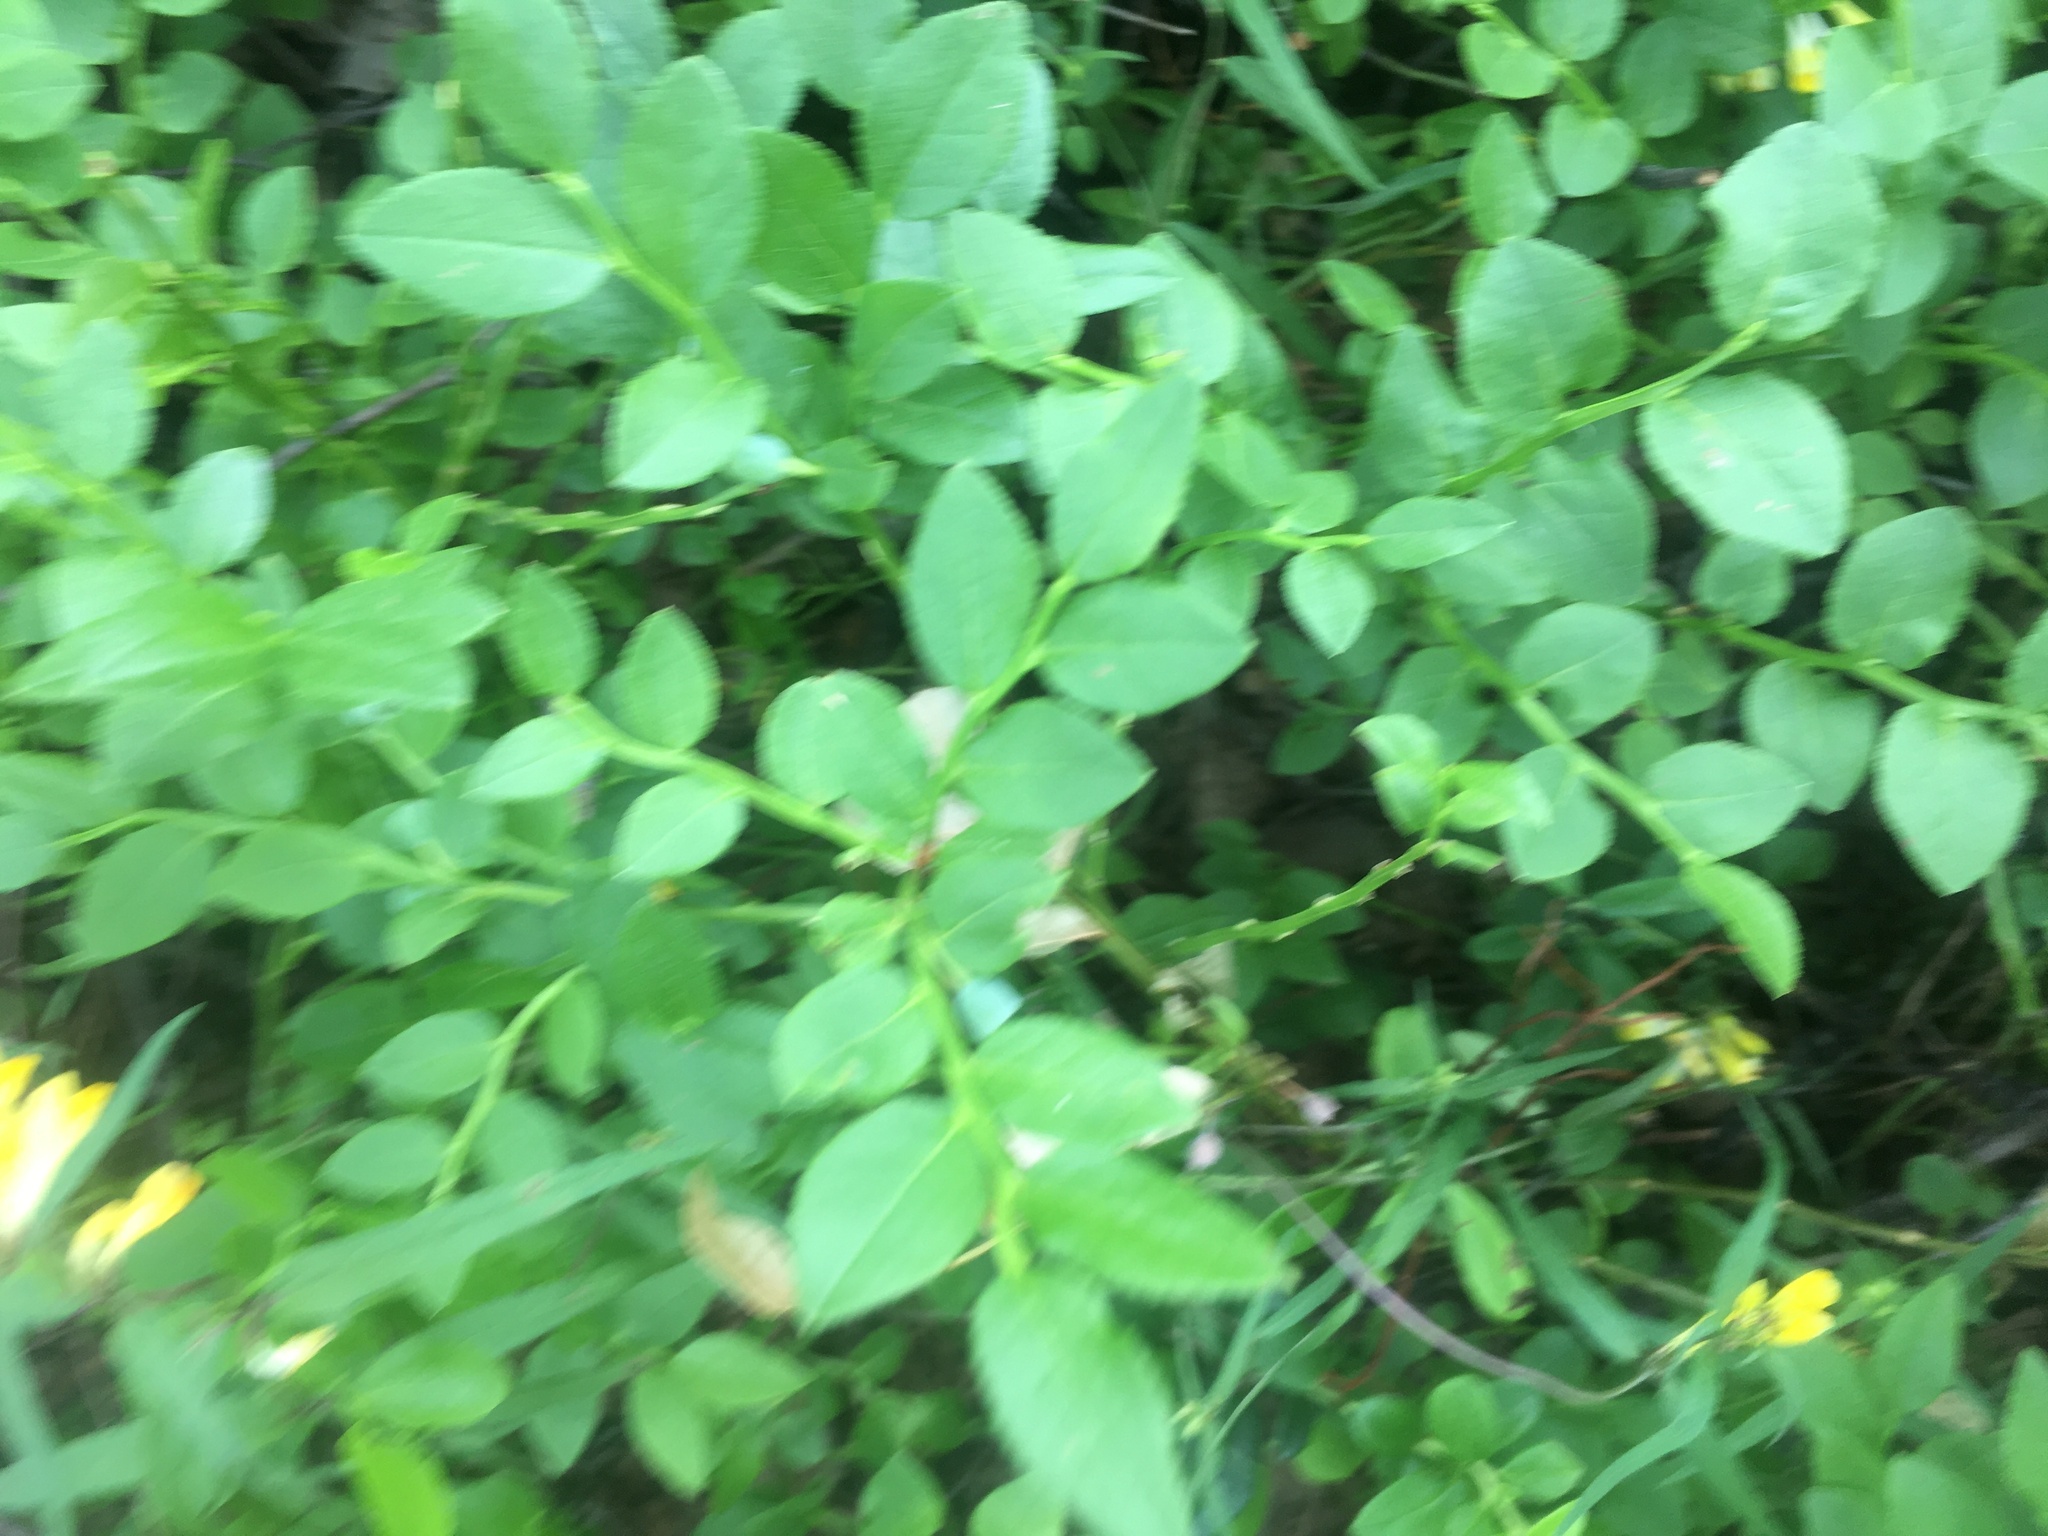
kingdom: Plantae
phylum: Tracheophyta
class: Magnoliopsida
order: Ericales
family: Ericaceae
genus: Vaccinium
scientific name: Vaccinium myrtillus
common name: Bilberry
